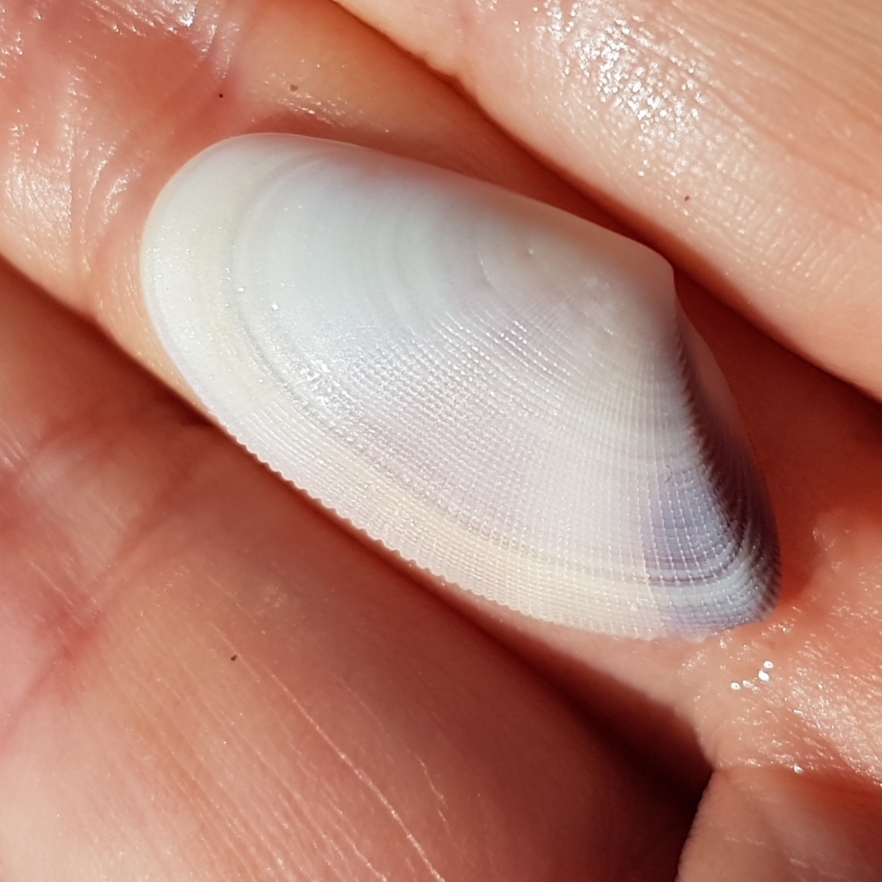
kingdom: Animalia
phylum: Mollusca
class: Bivalvia
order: Cardiida
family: Donacidae
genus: Donax
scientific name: Donax semistriatus
